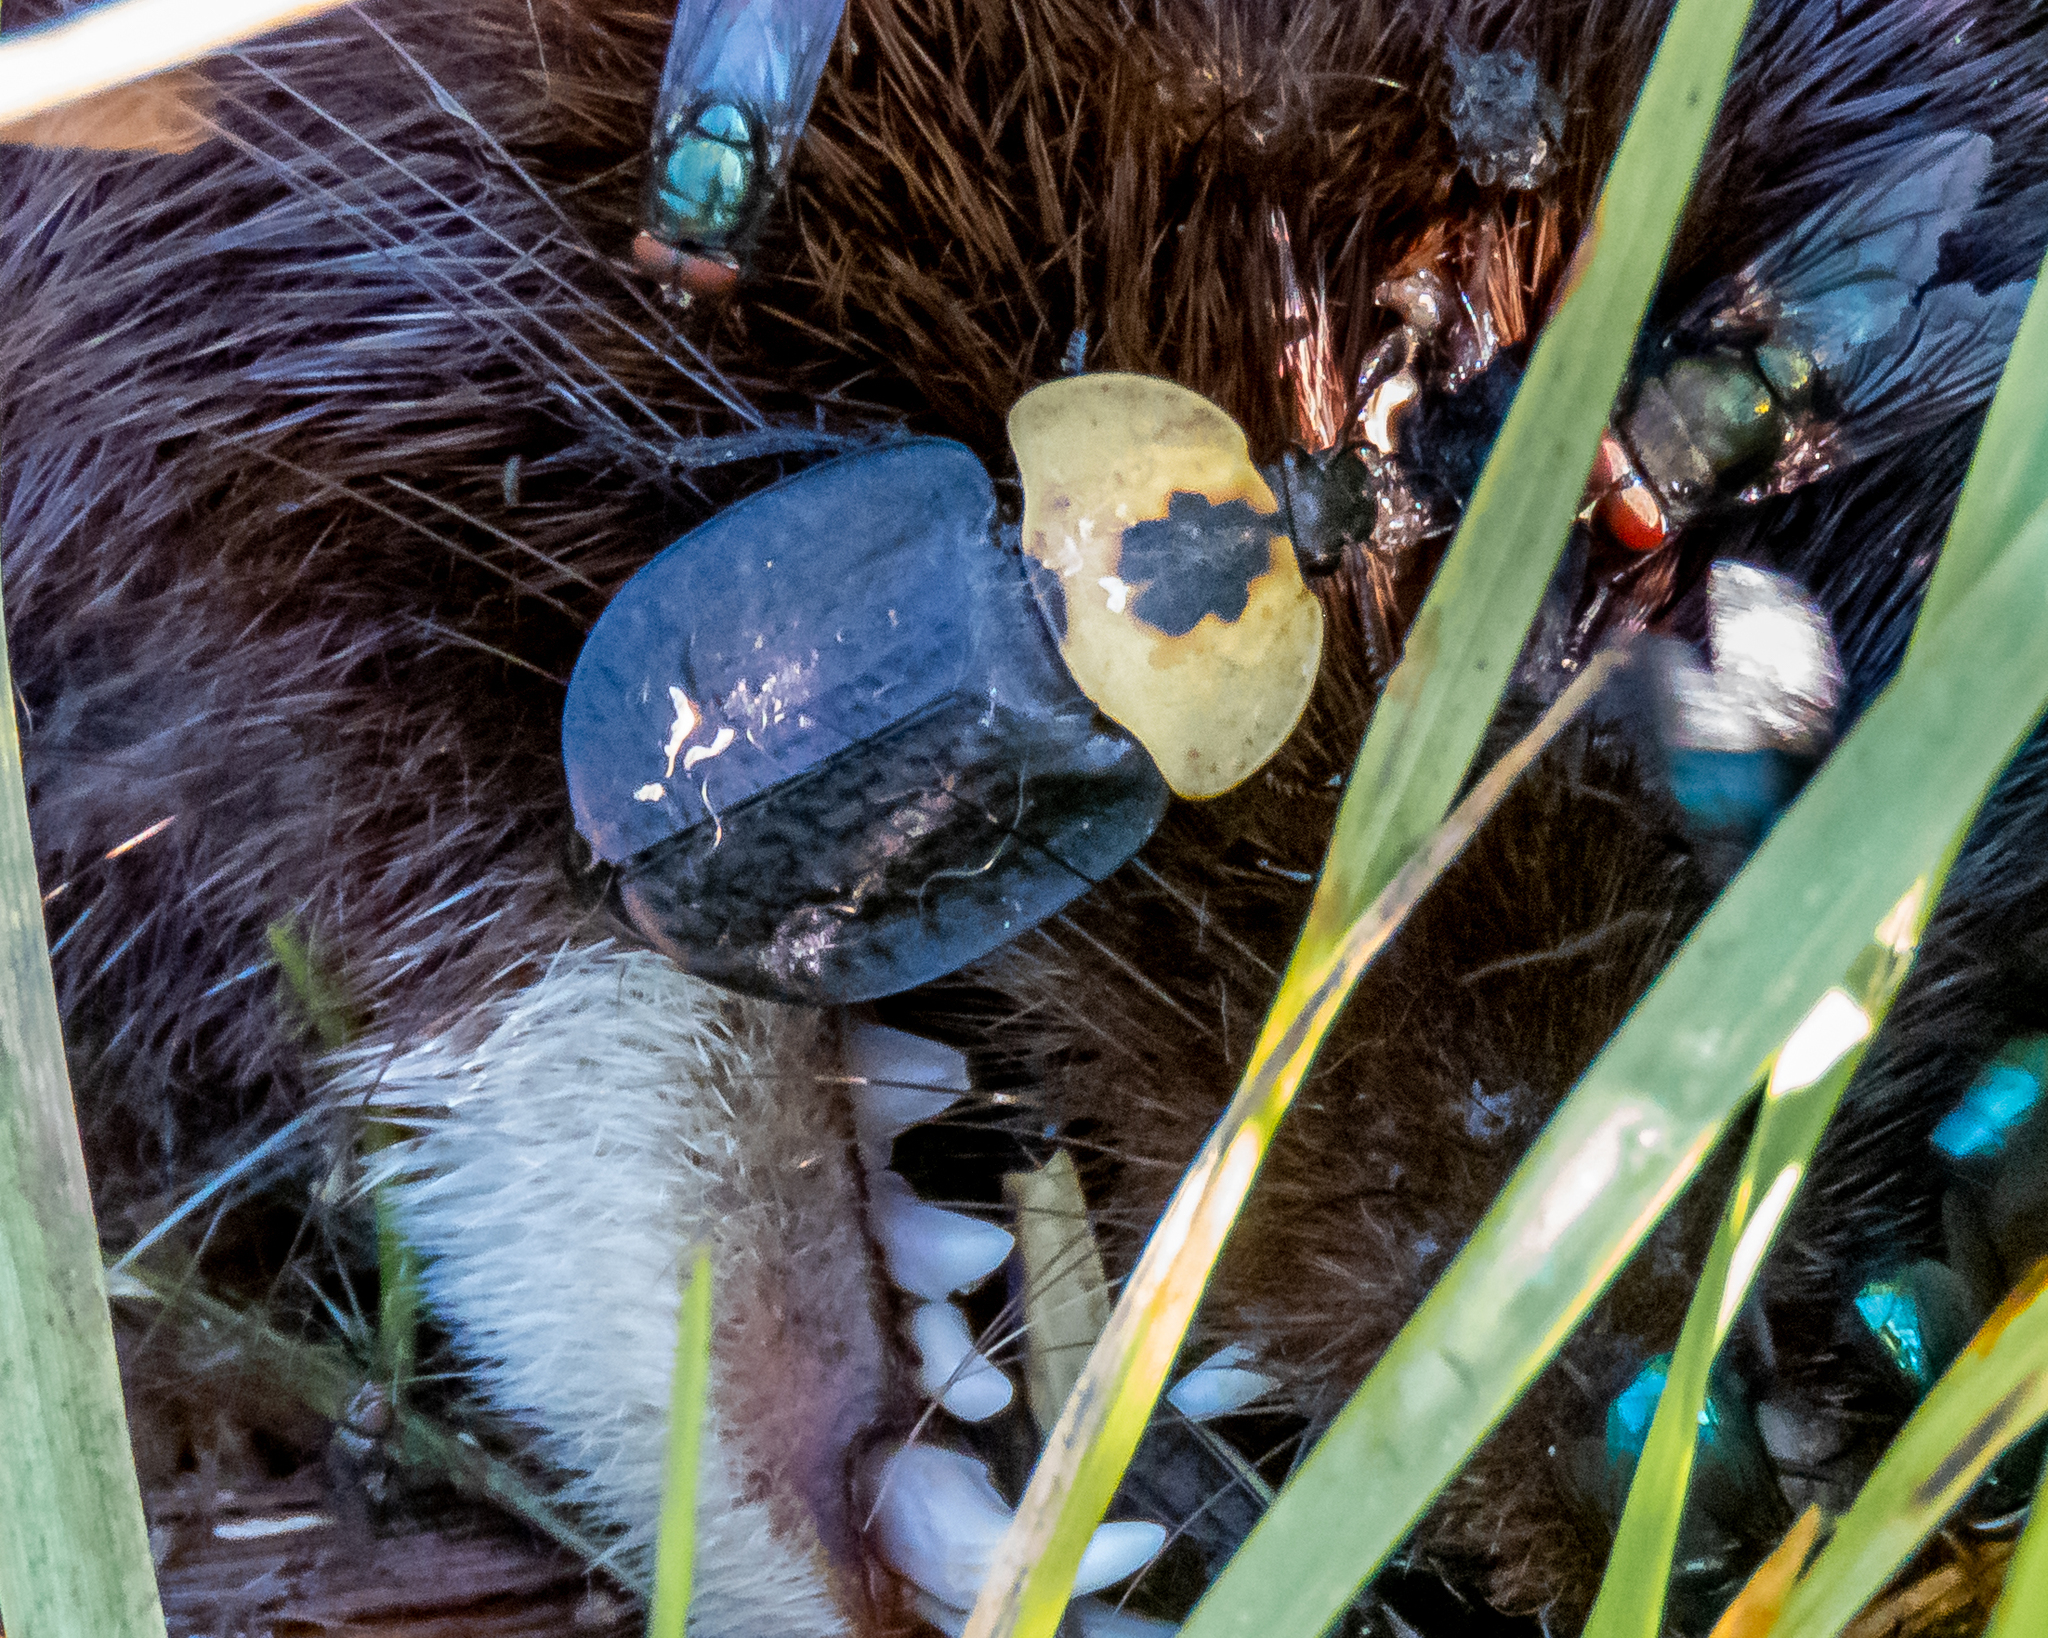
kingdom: Animalia
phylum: Arthropoda
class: Insecta
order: Coleoptera
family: Staphylinidae
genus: Necrophila
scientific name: Necrophila americana
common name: American carrion beetle
